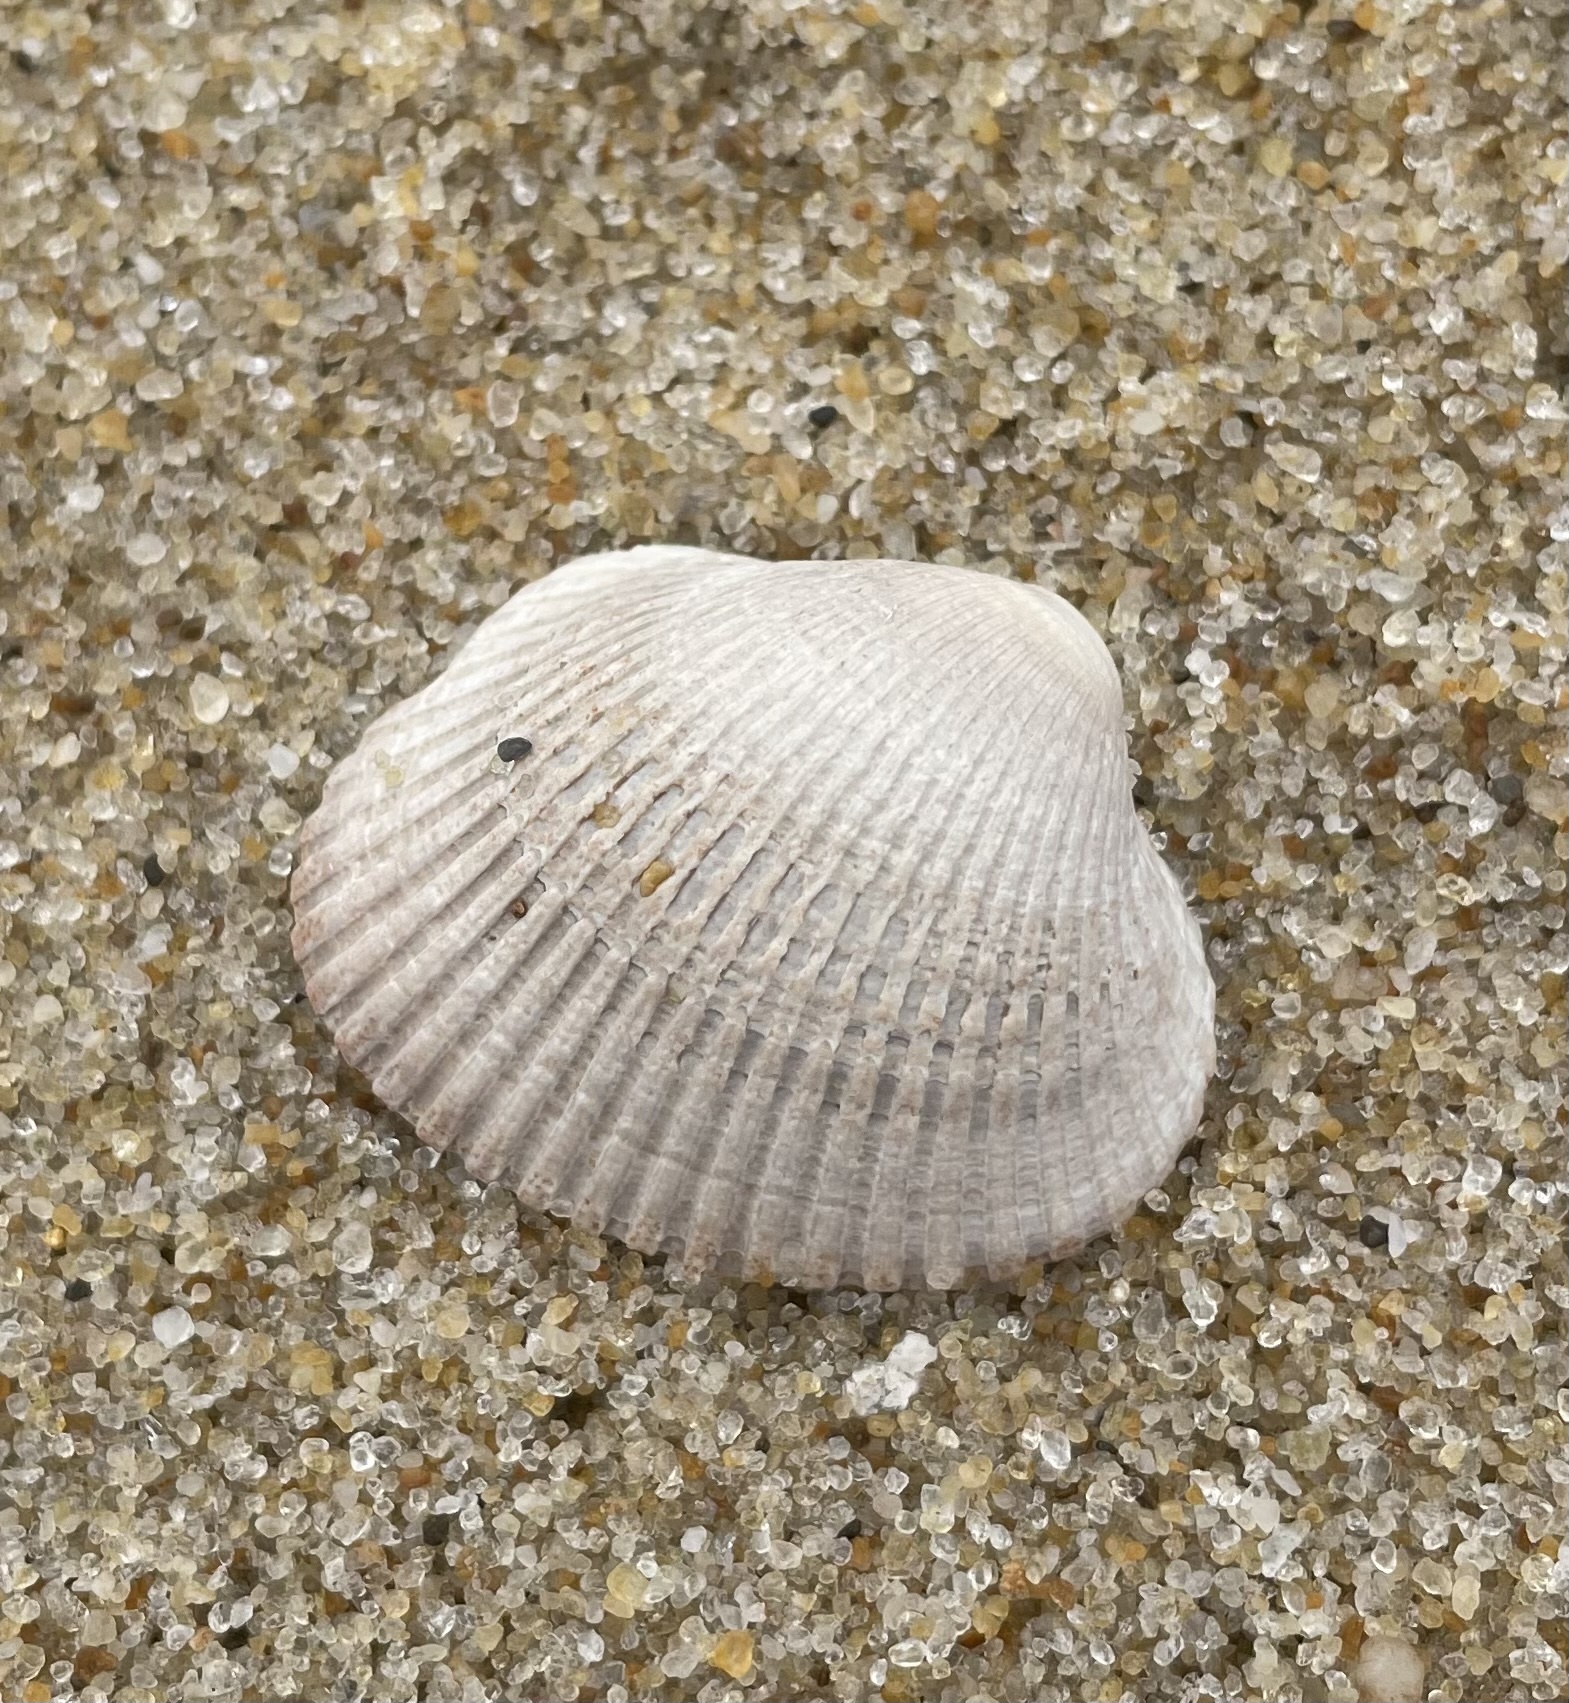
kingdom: Animalia
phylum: Mollusca
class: Bivalvia
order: Arcida
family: Arcidae
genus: Lunarca
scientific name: Lunarca ovalis
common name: Blood ark
